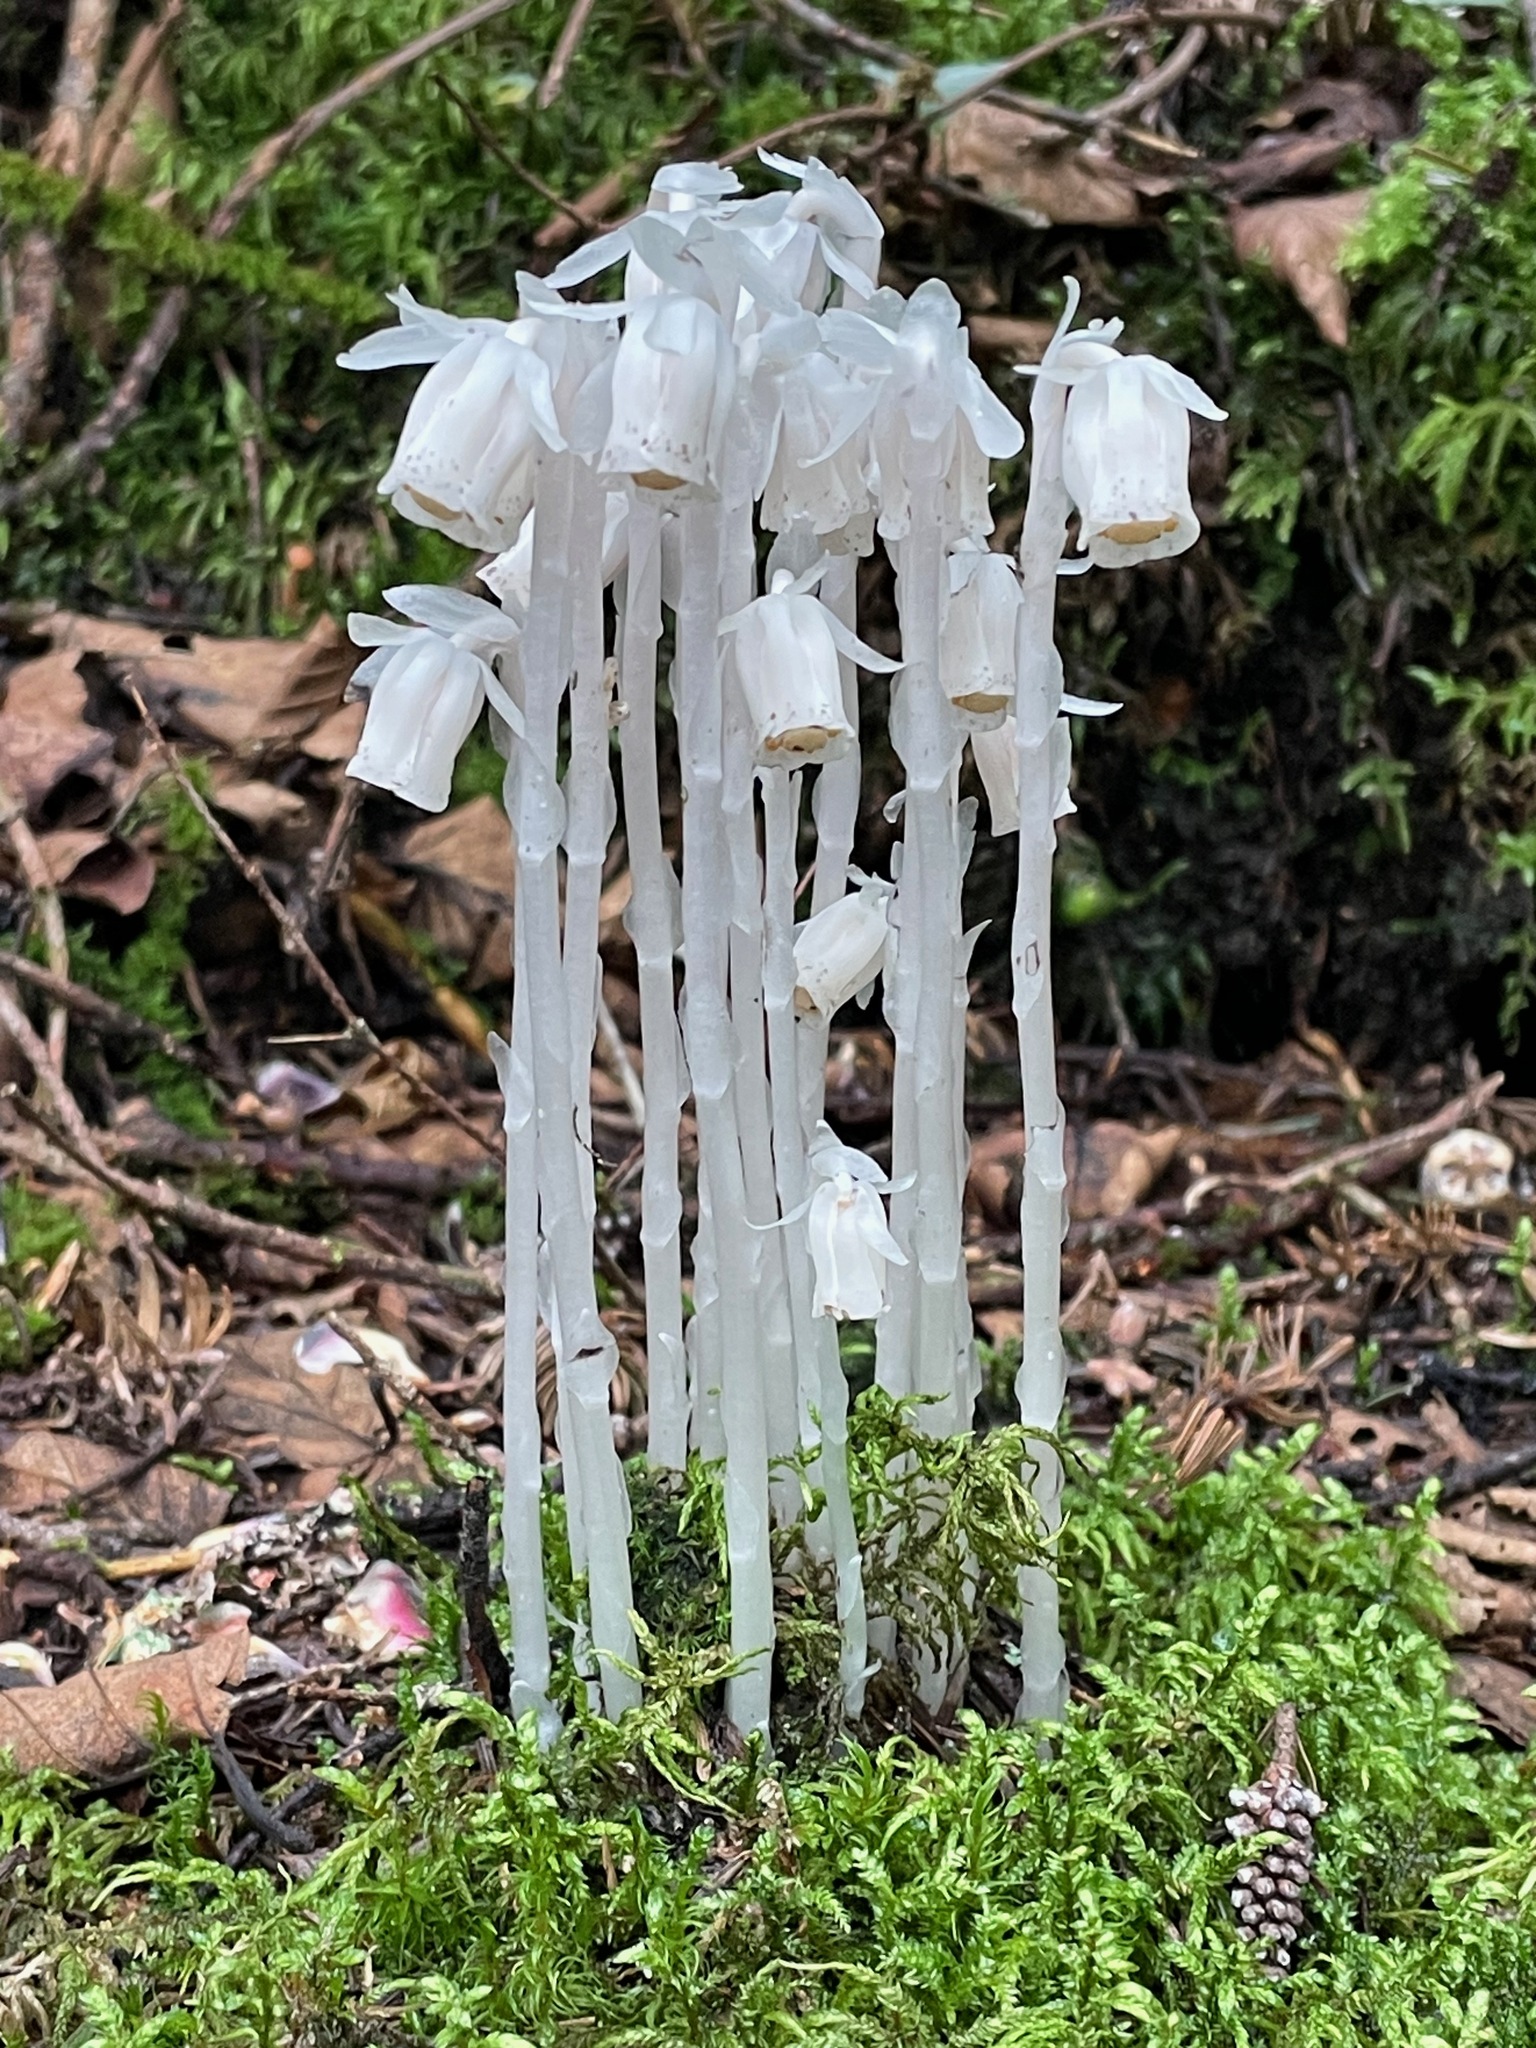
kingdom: Plantae
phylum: Tracheophyta
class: Magnoliopsida
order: Ericales
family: Ericaceae
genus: Monotropa
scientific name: Monotropa uniflora
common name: Convulsion root
